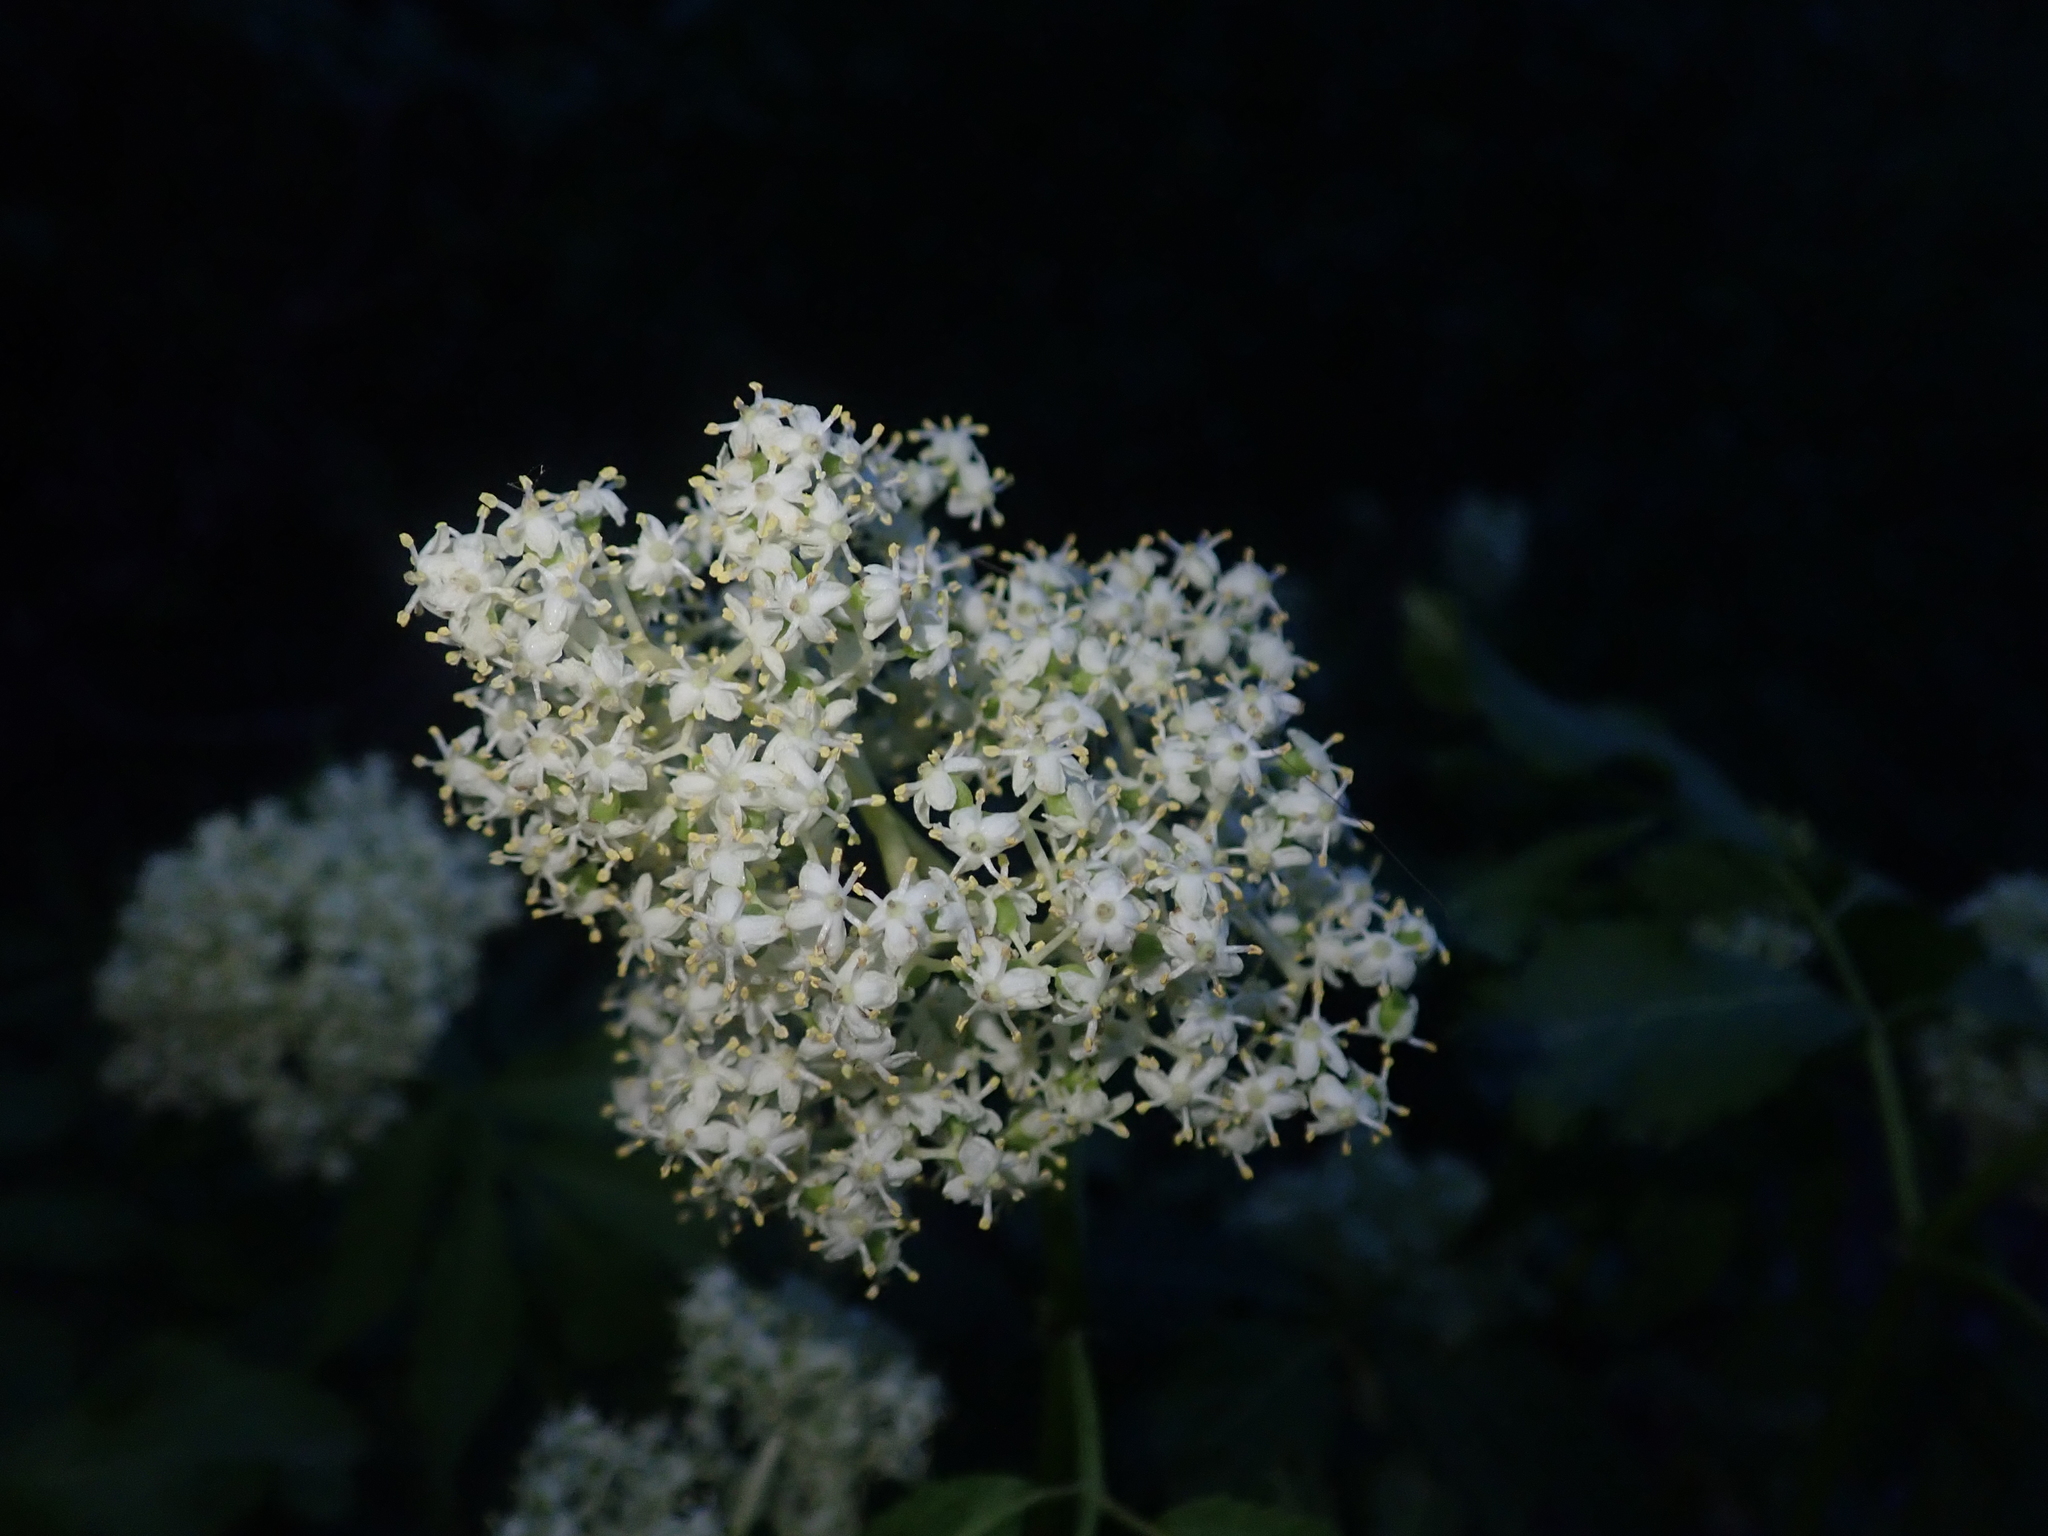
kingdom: Plantae
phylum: Tracheophyta
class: Magnoliopsida
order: Dipsacales
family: Viburnaceae
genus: Sambucus
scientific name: Sambucus racemosa
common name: Red-berried elder
